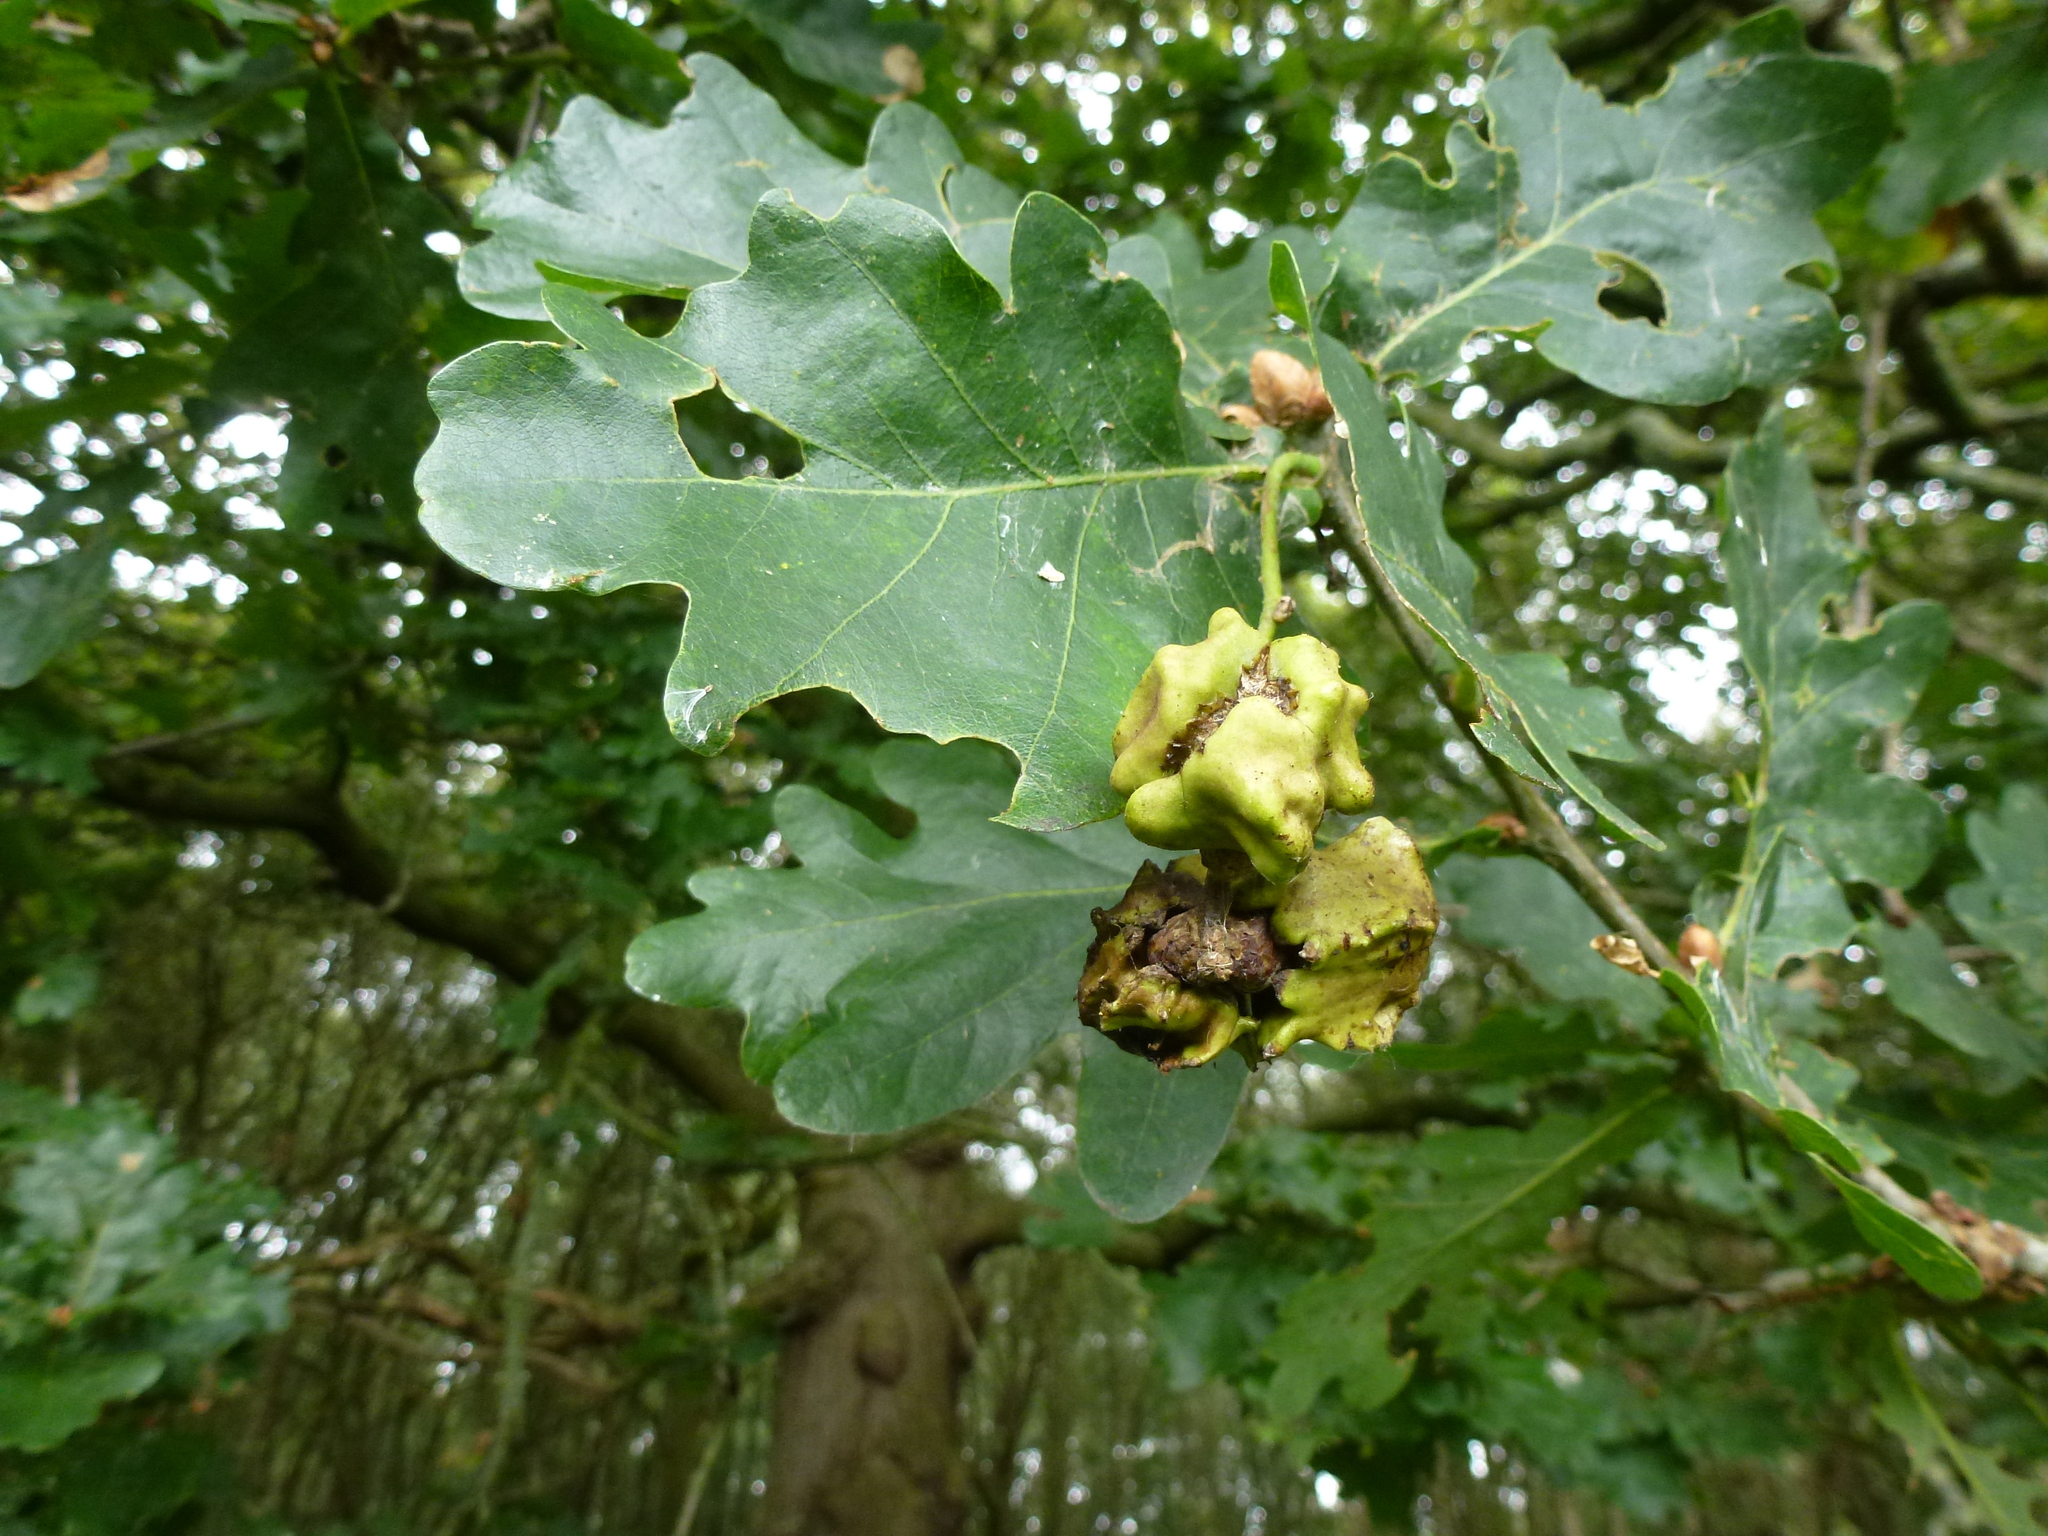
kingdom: Animalia
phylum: Arthropoda
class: Insecta
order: Hymenoptera
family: Cynipidae
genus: Andricus
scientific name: Andricus quercuscalicis
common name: Knopper gall
